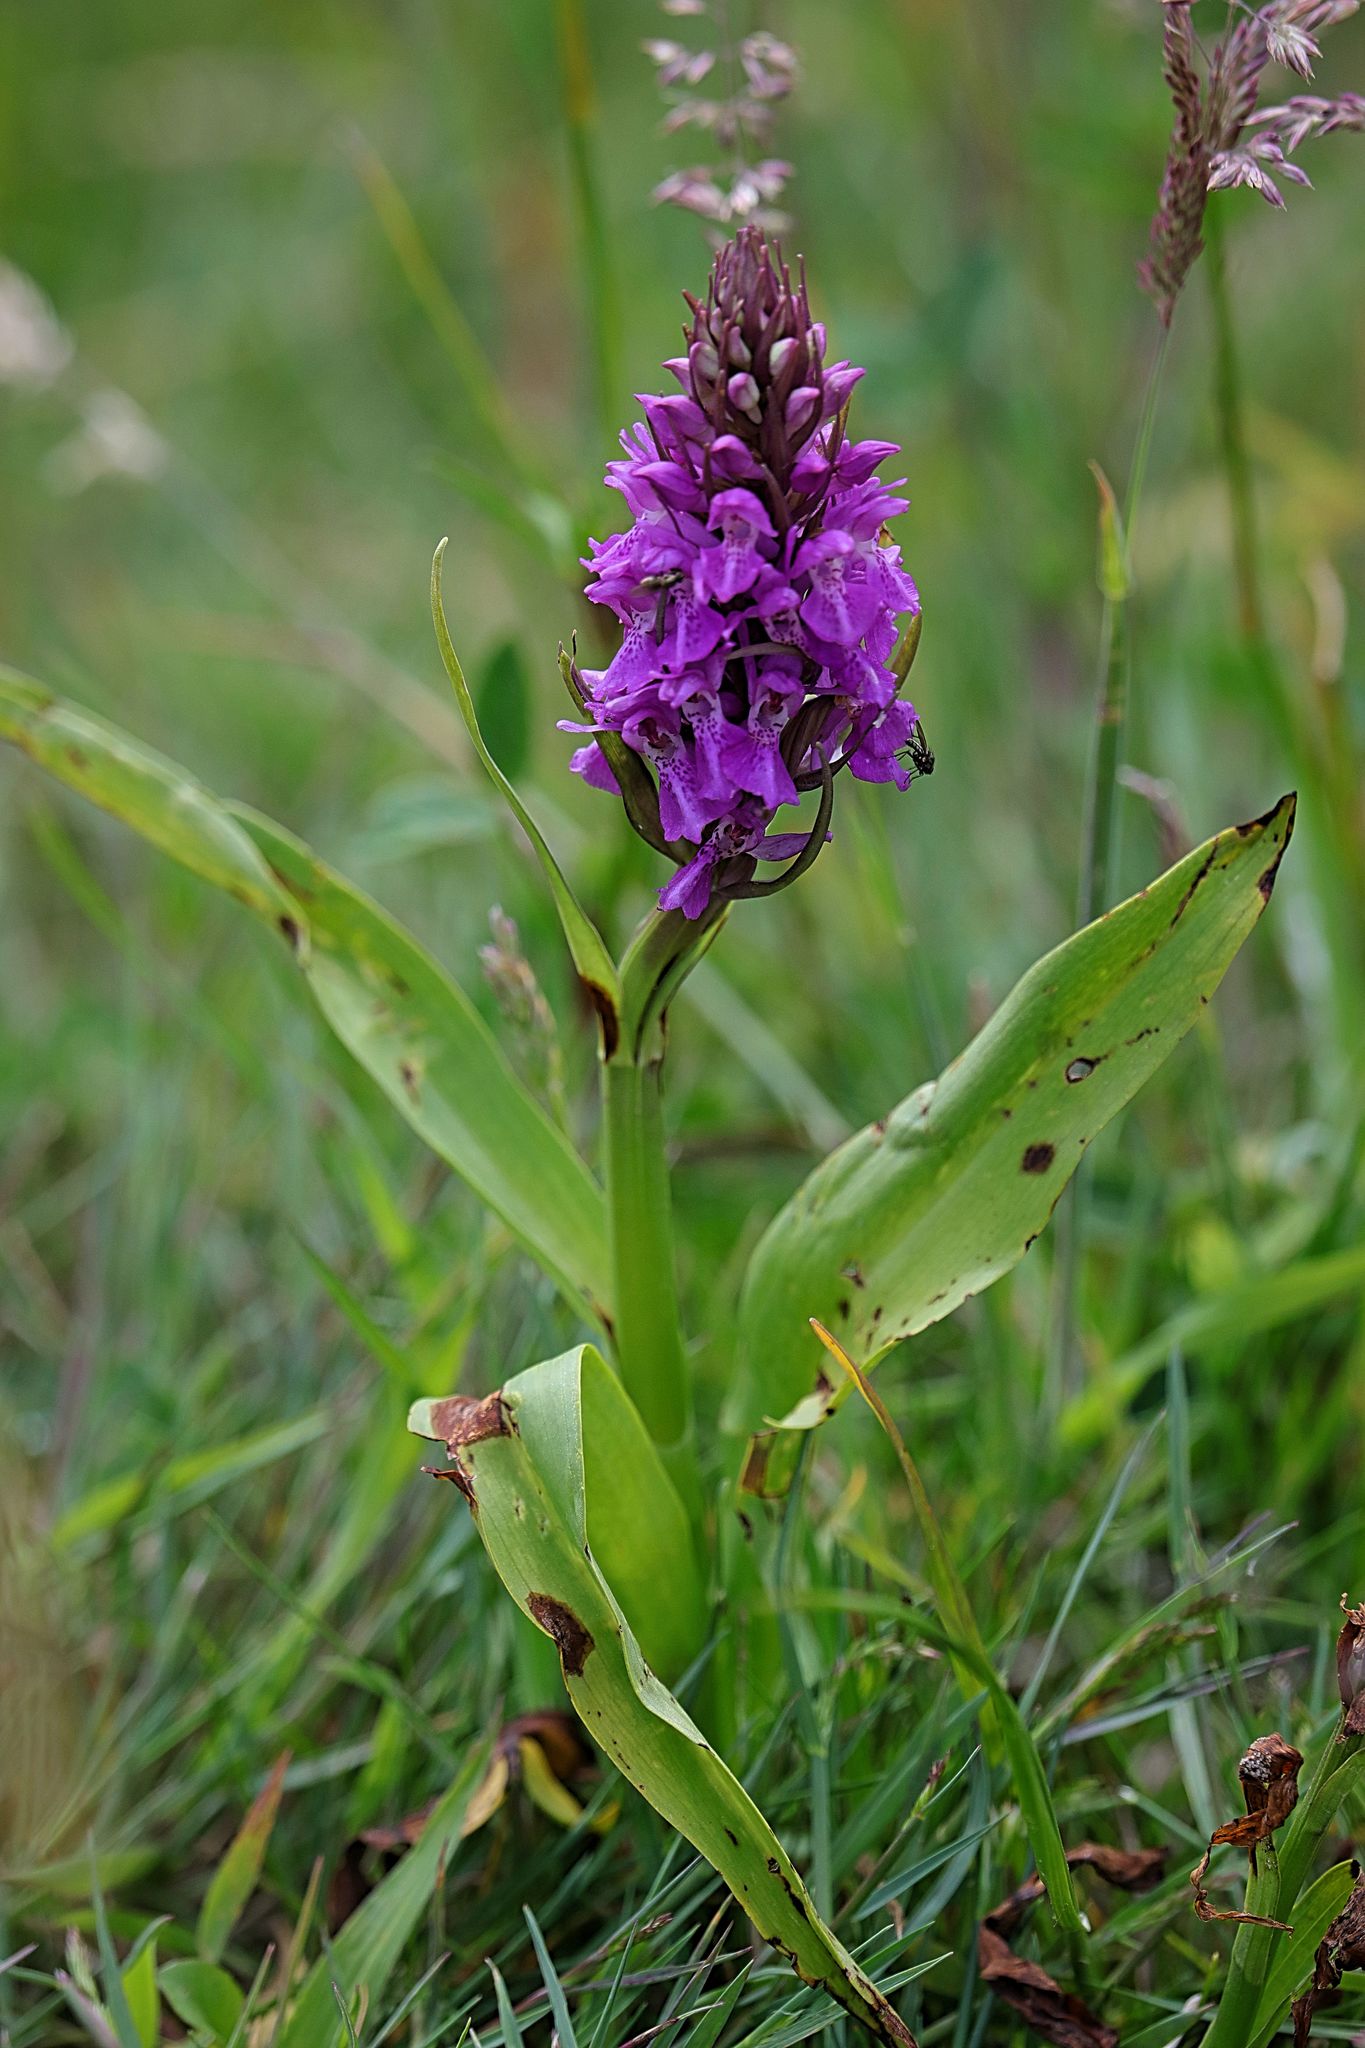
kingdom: Plantae
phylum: Tracheophyta
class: Liliopsida
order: Asparagales
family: Orchidaceae
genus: Dactylorhiza
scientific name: Dactylorhiza majalis
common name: Marsh orchid
